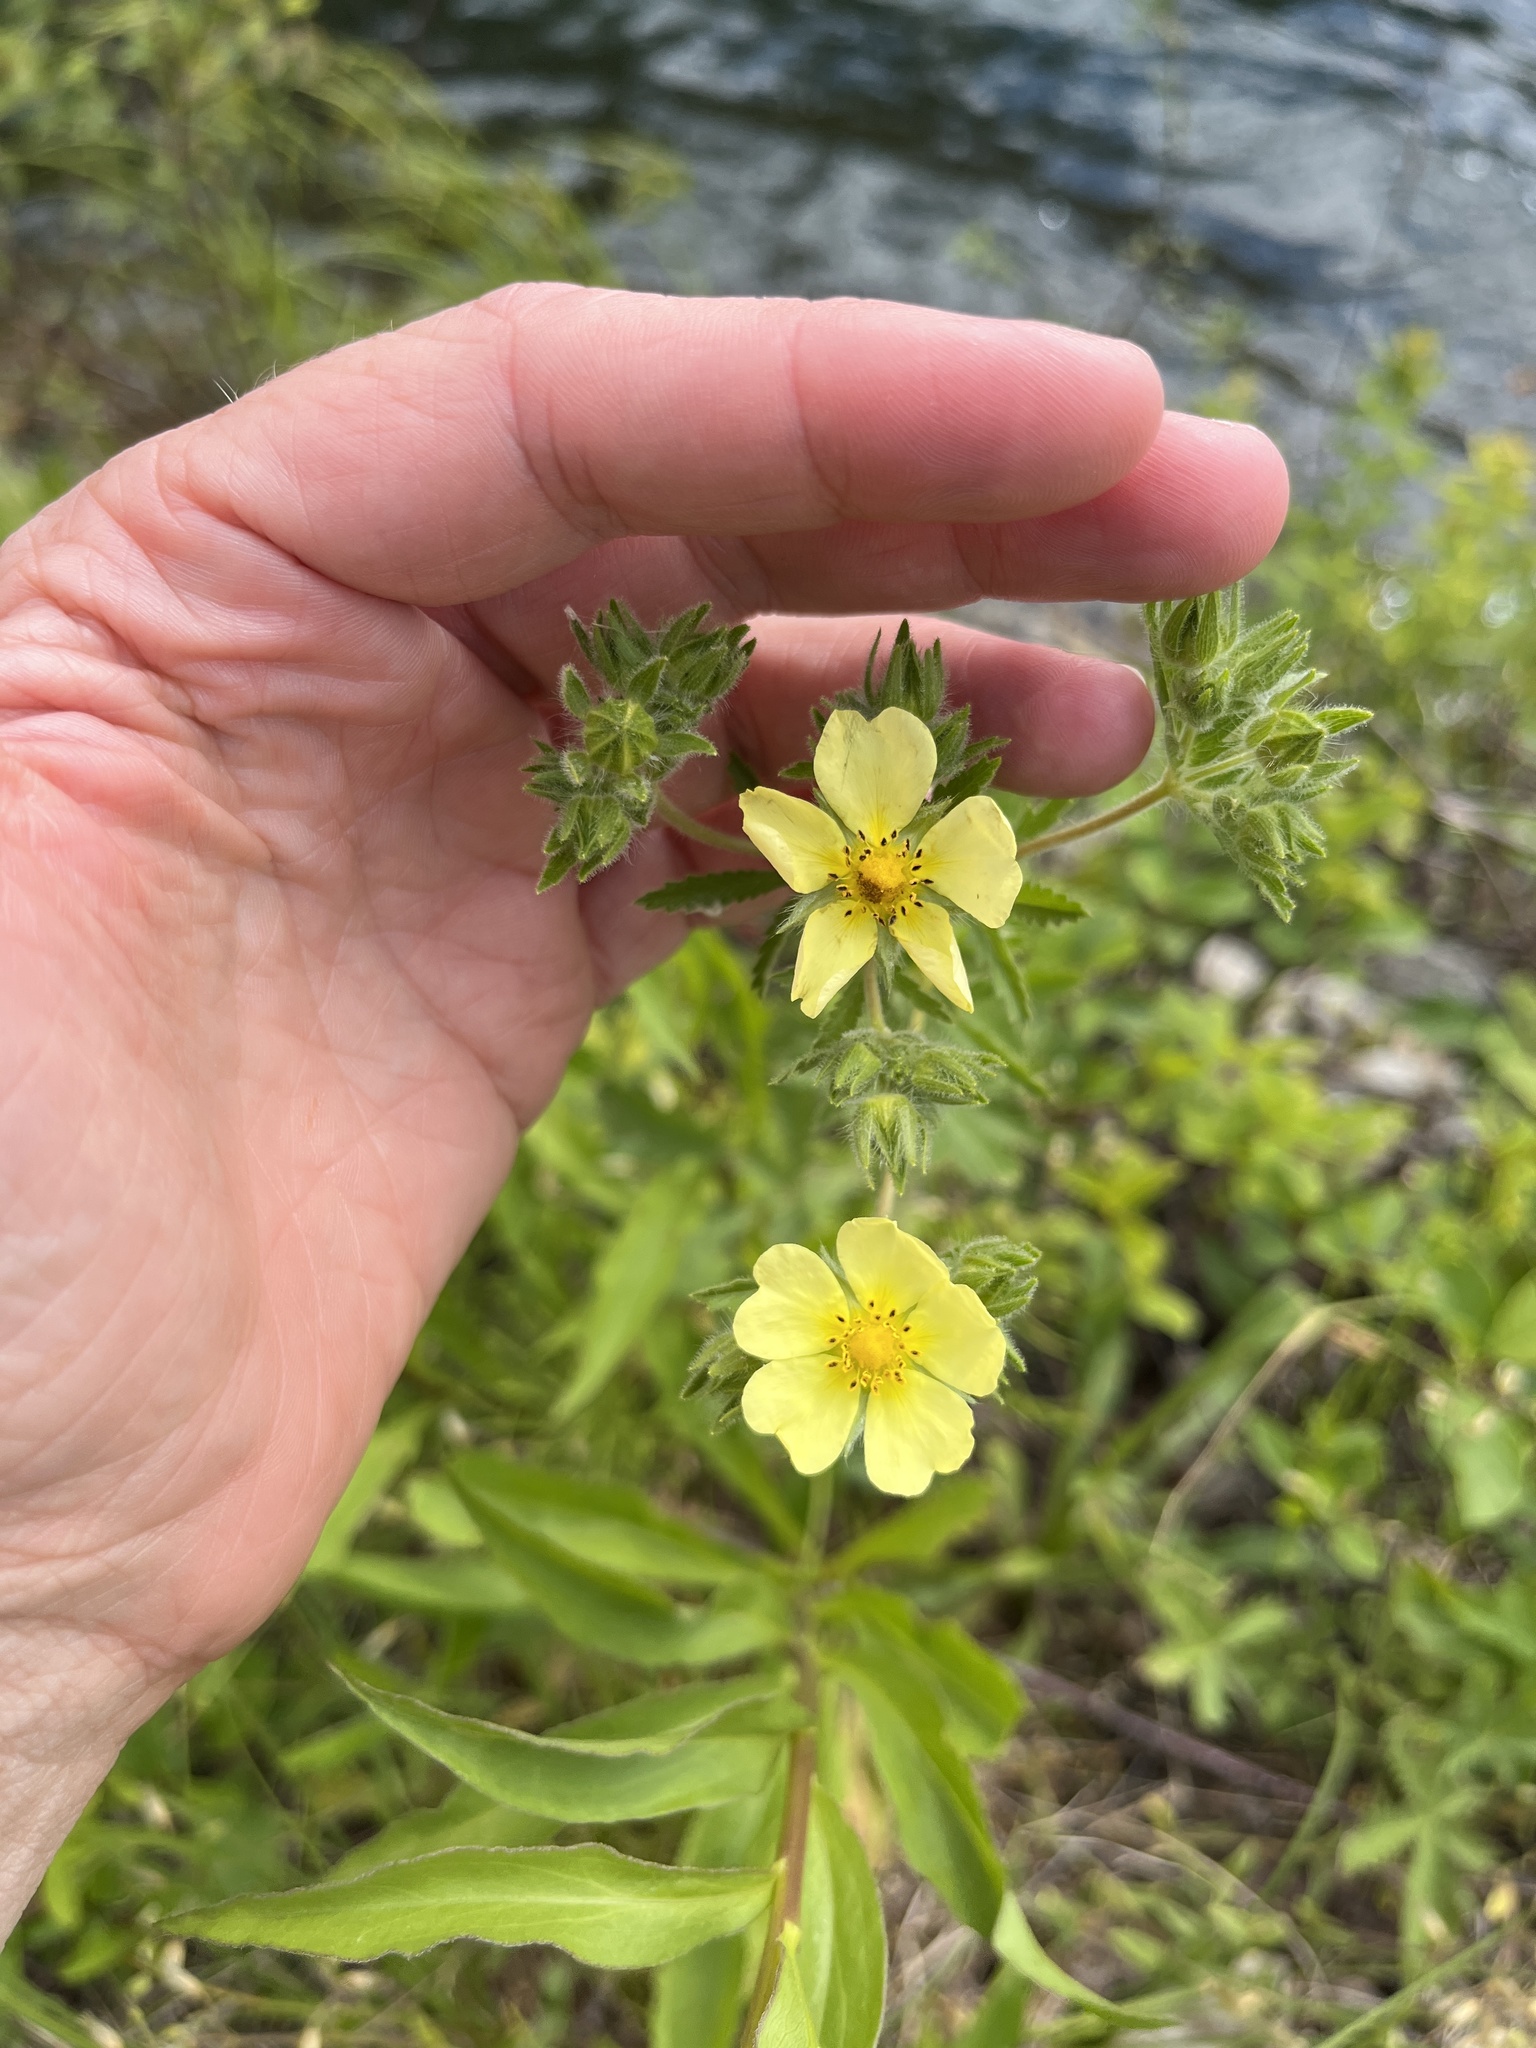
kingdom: Plantae
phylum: Tracheophyta
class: Magnoliopsida
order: Rosales
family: Rosaceae
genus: Potentilla
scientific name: Potentilla recta
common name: Sulphur cinquefoil
